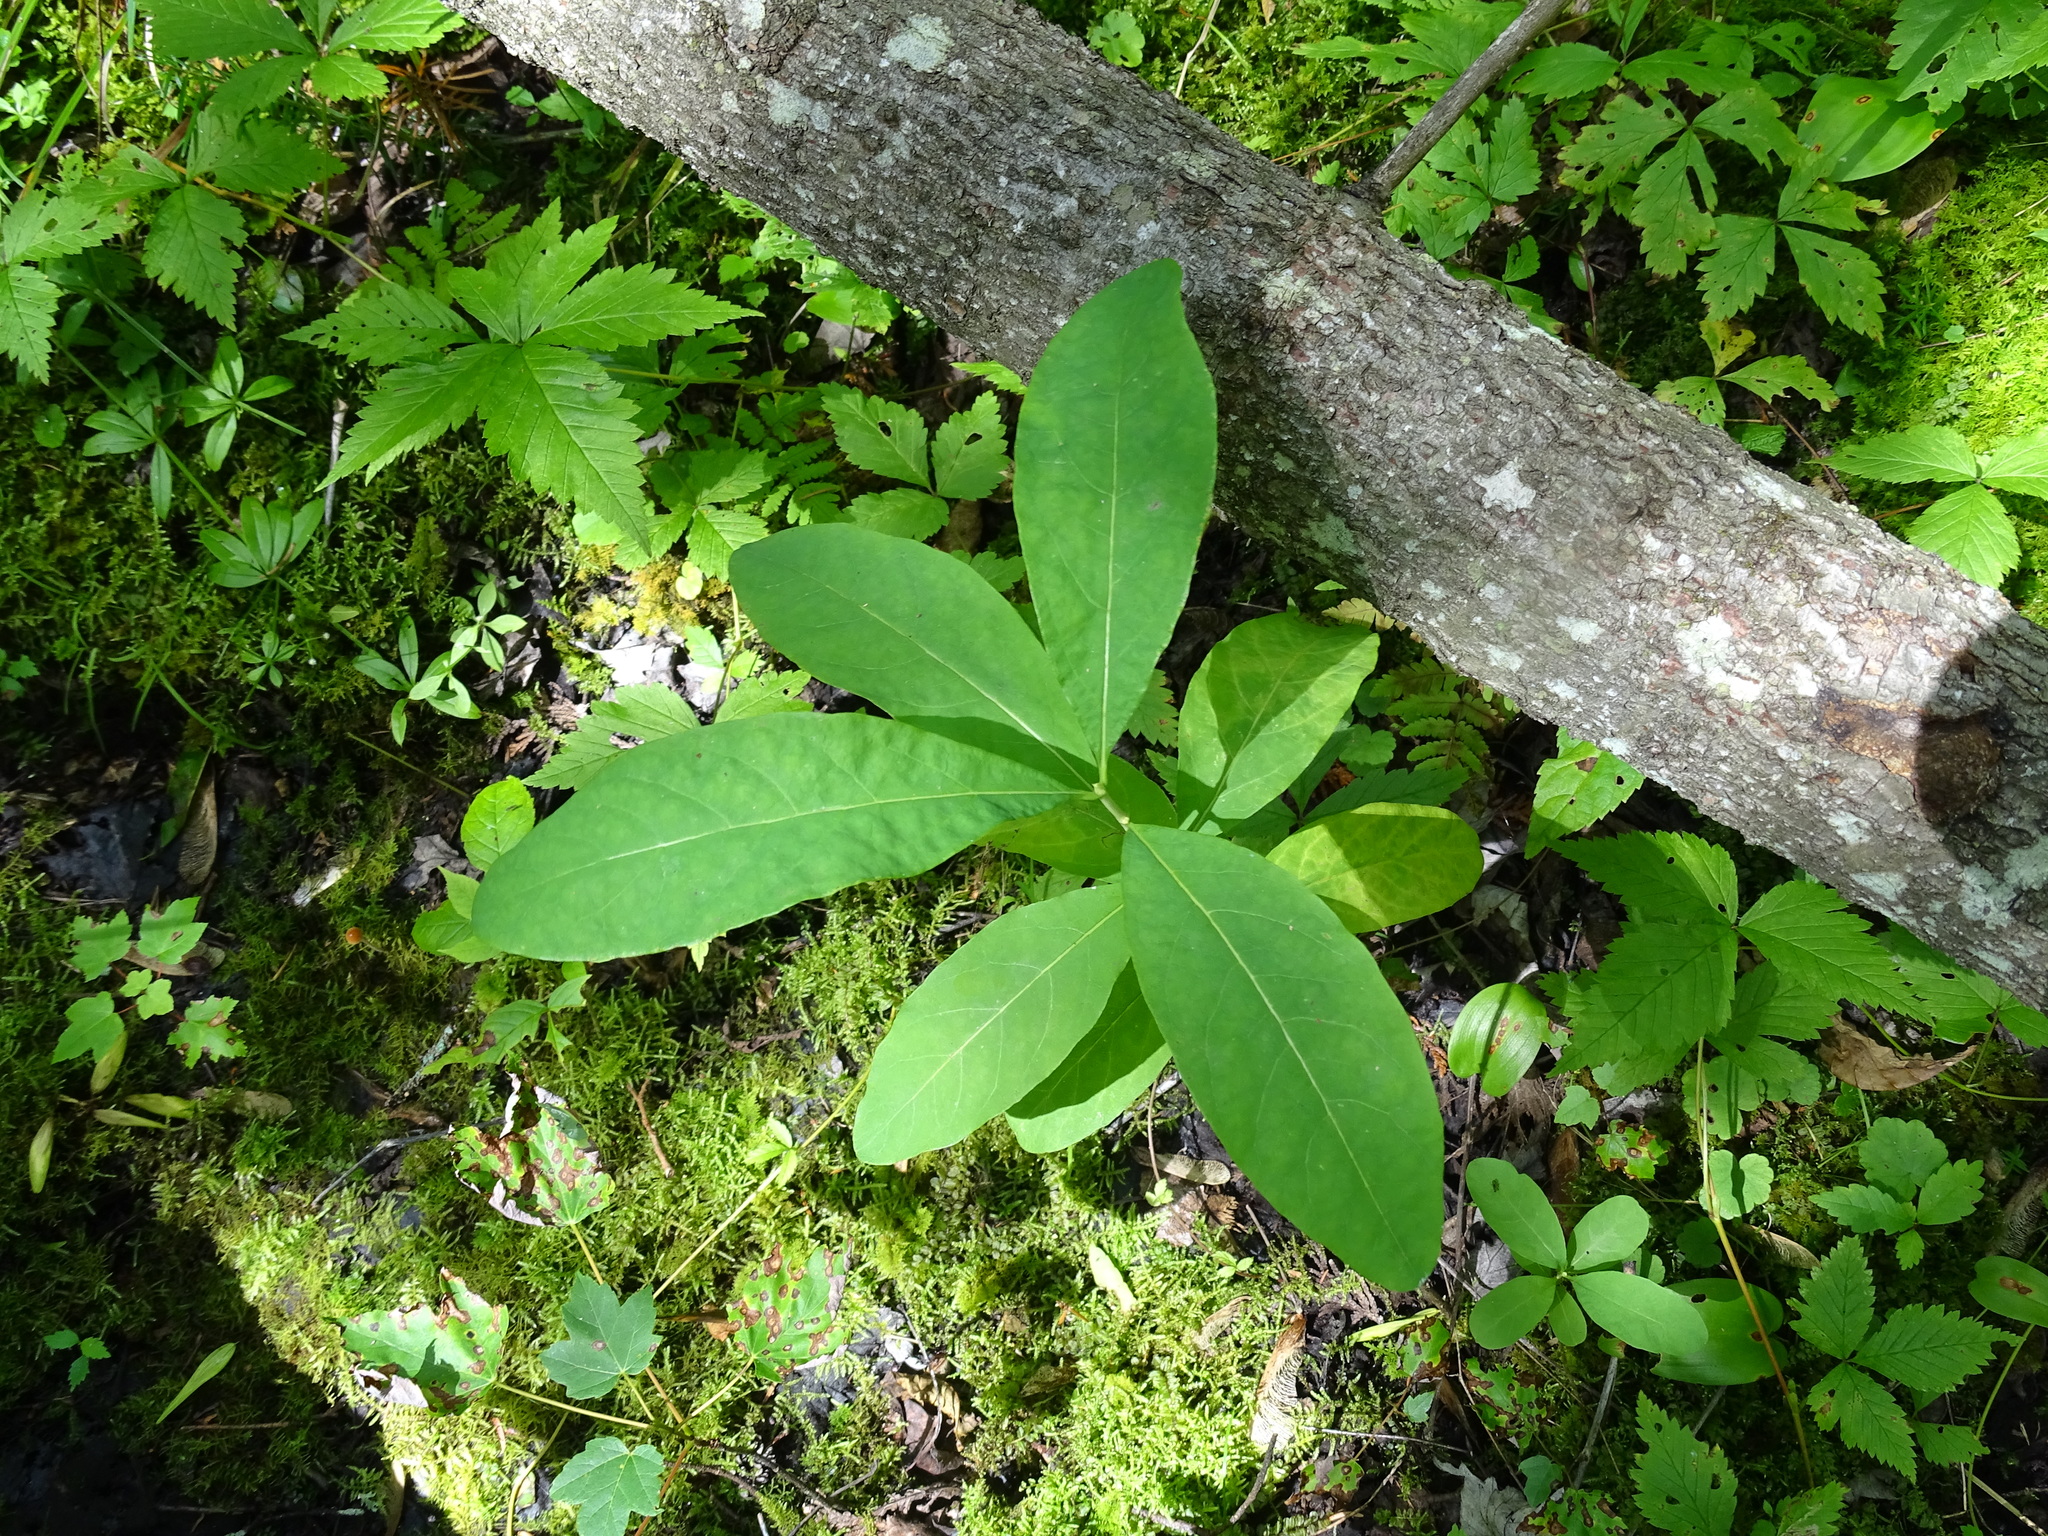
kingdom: Plantae
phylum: Tracheophyta
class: Magnoliopsida
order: Dipsacales
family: Caprifoliaceae
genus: Lonicera
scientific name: Lonicera oblongifolia
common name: Swamp fly honeysuckle
